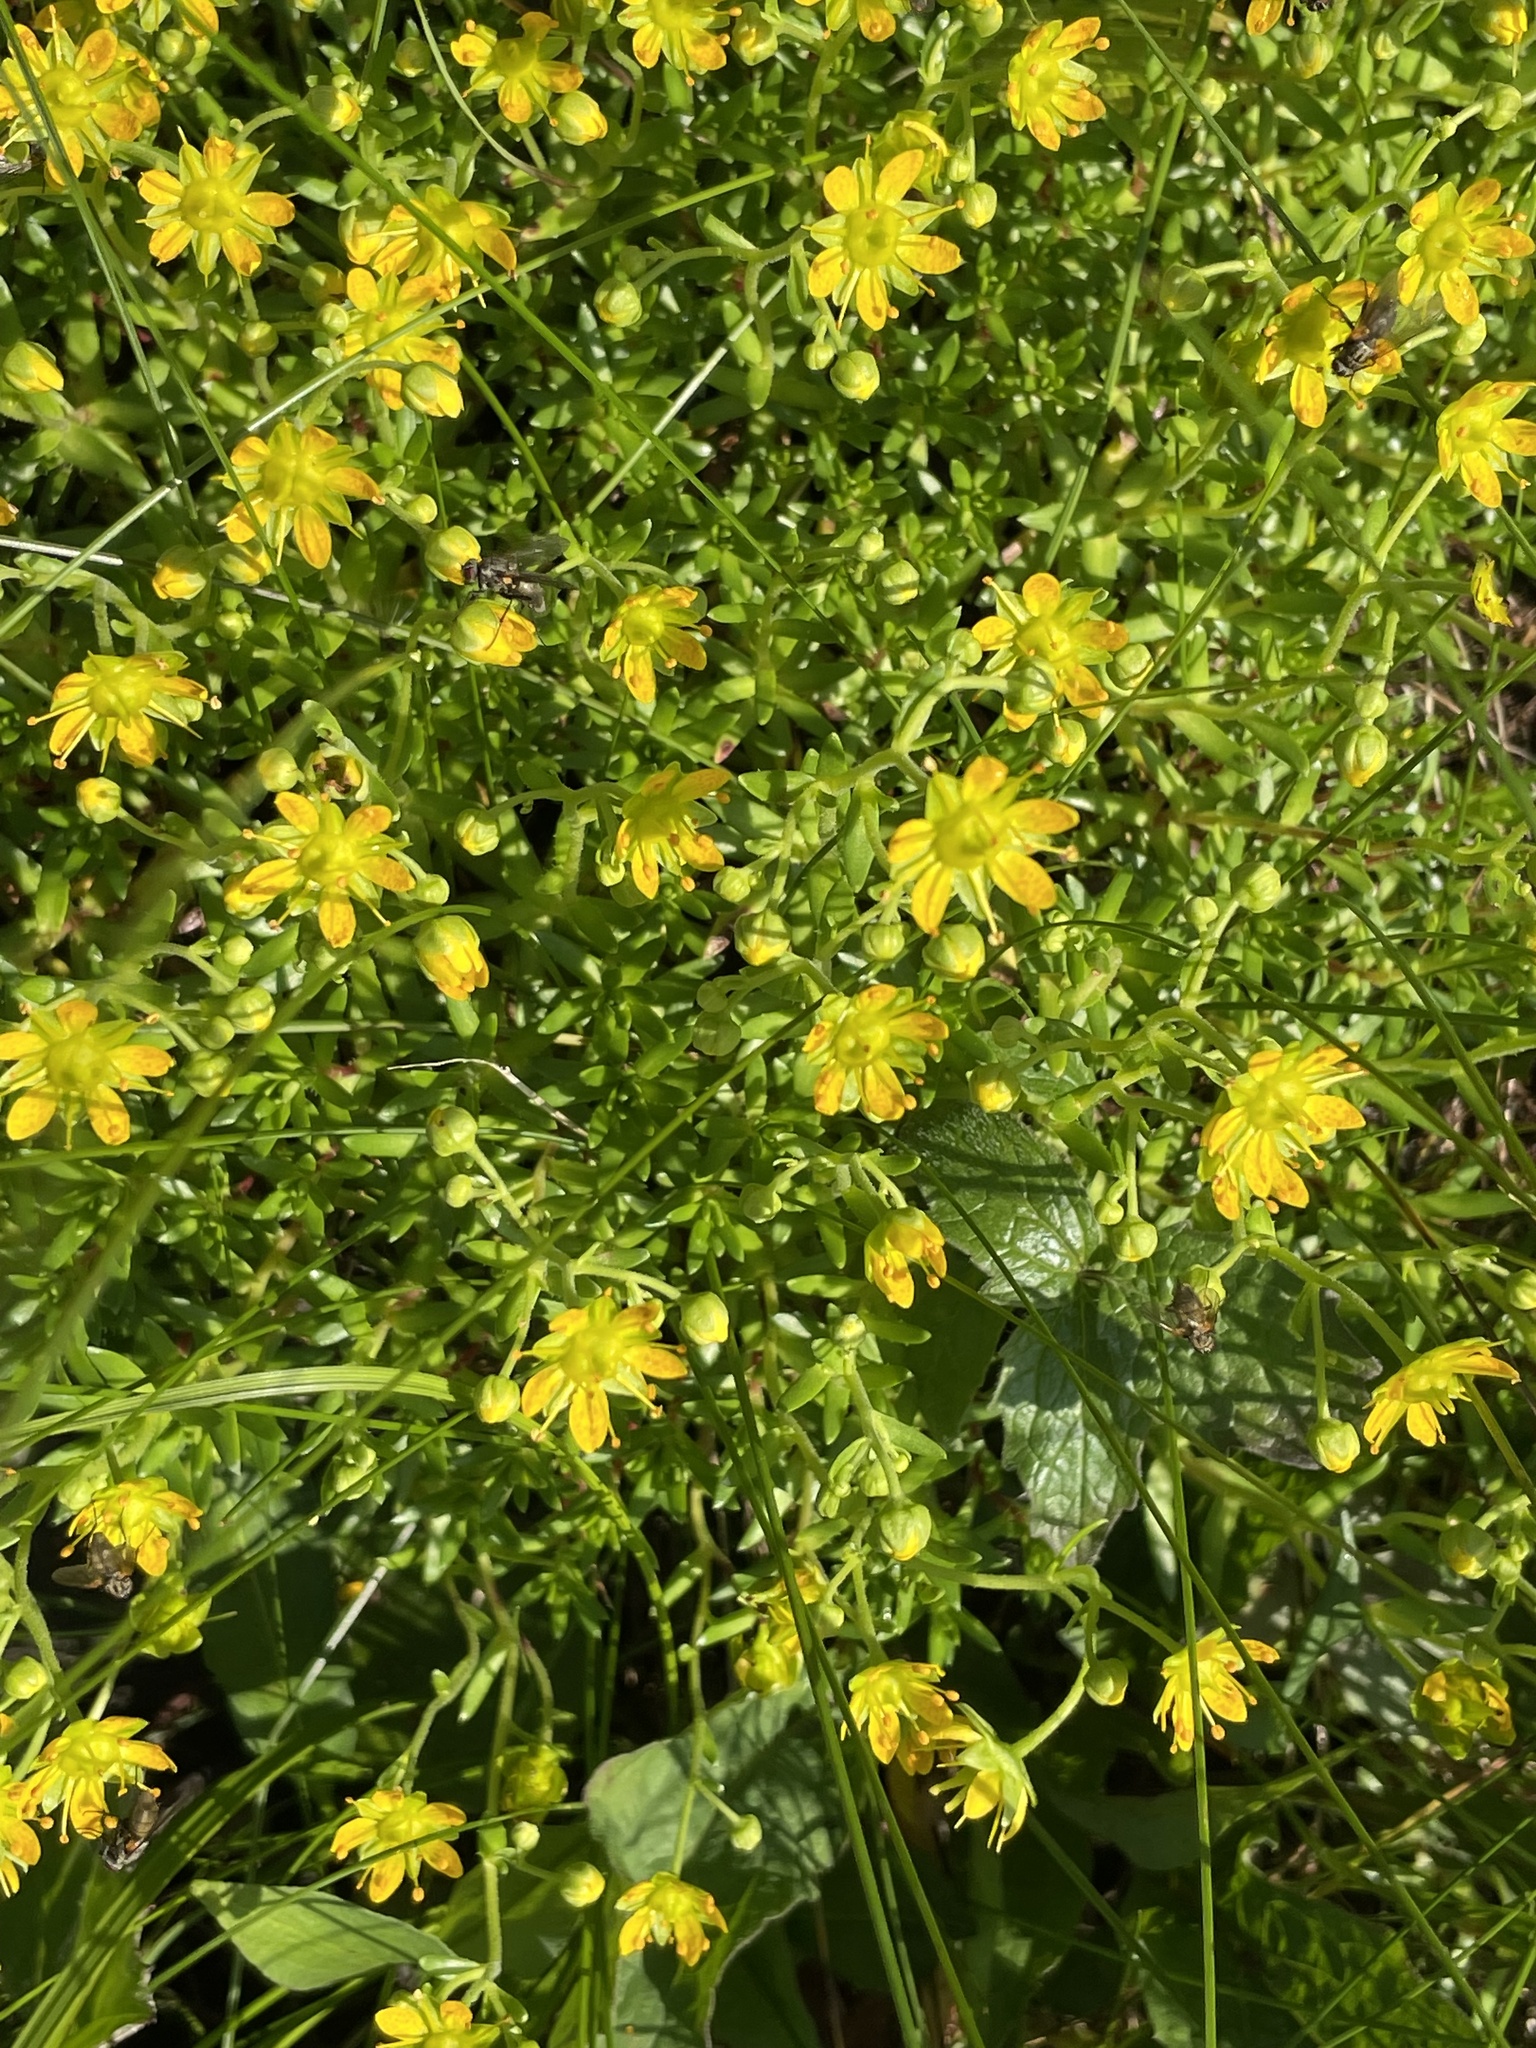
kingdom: Plantae
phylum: Tracheophyta
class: Magnoliopsida
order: Saxifragales
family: Saxifragaceae
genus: Saxifraga
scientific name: Saxifraga aizoides
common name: Yellow mountain saxifrage
